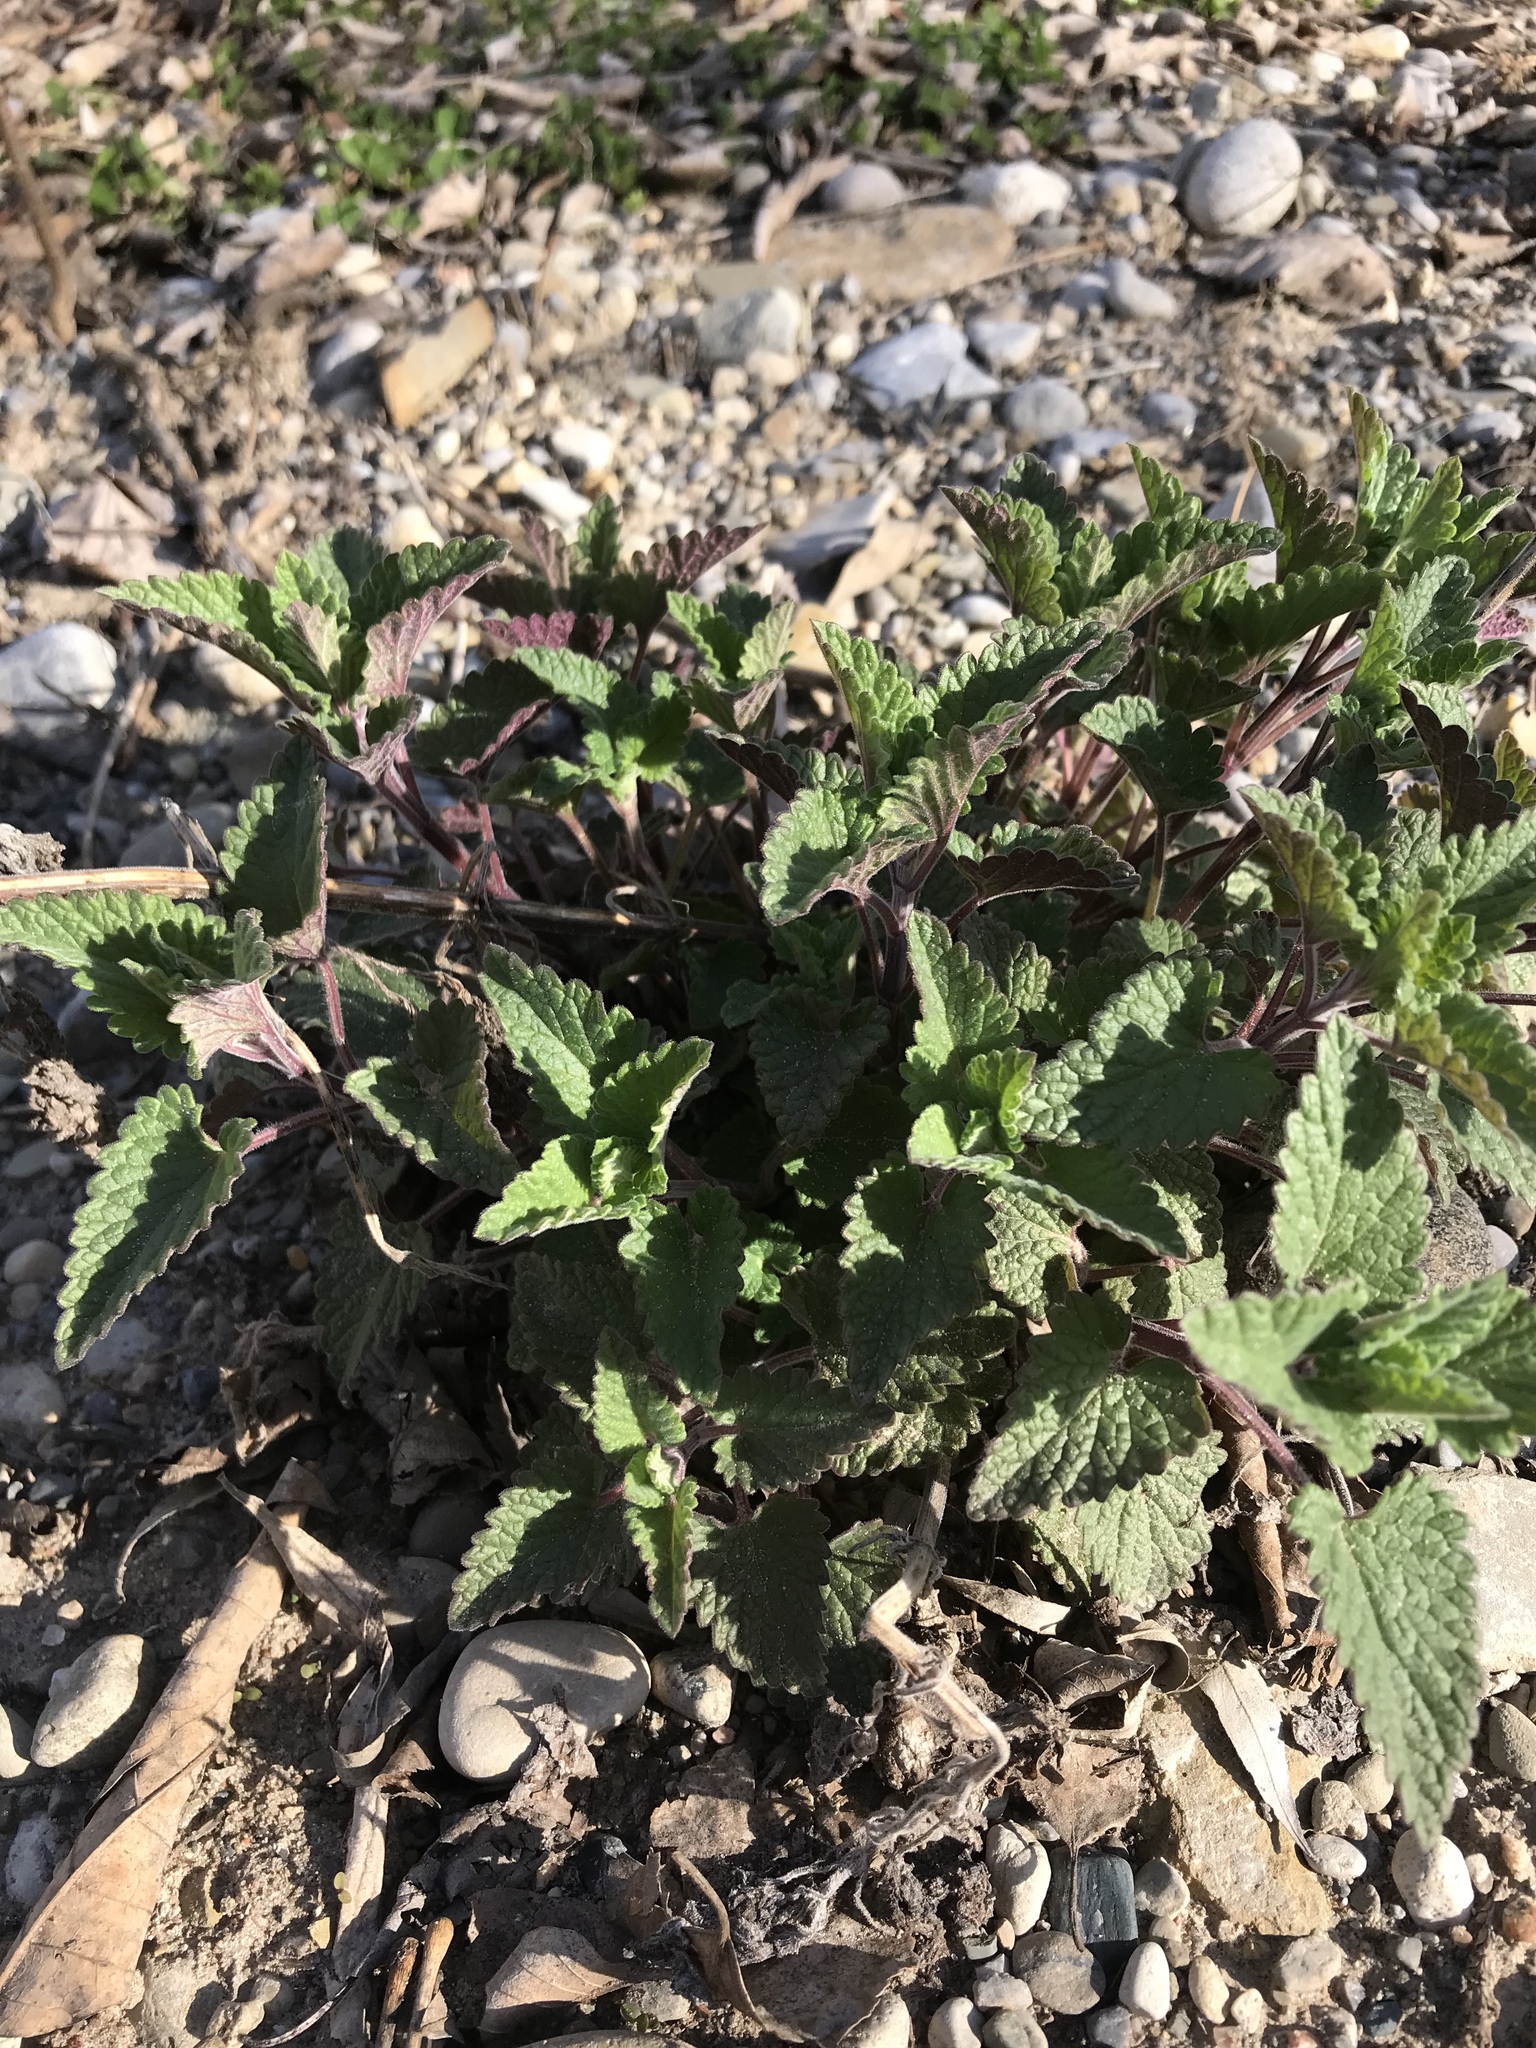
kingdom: Plantae
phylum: Tracheophyta
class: Magnoliopsida
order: Lamiales
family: Lamiaceae
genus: Nepeta
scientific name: Nepeta cataria
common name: Catnip
